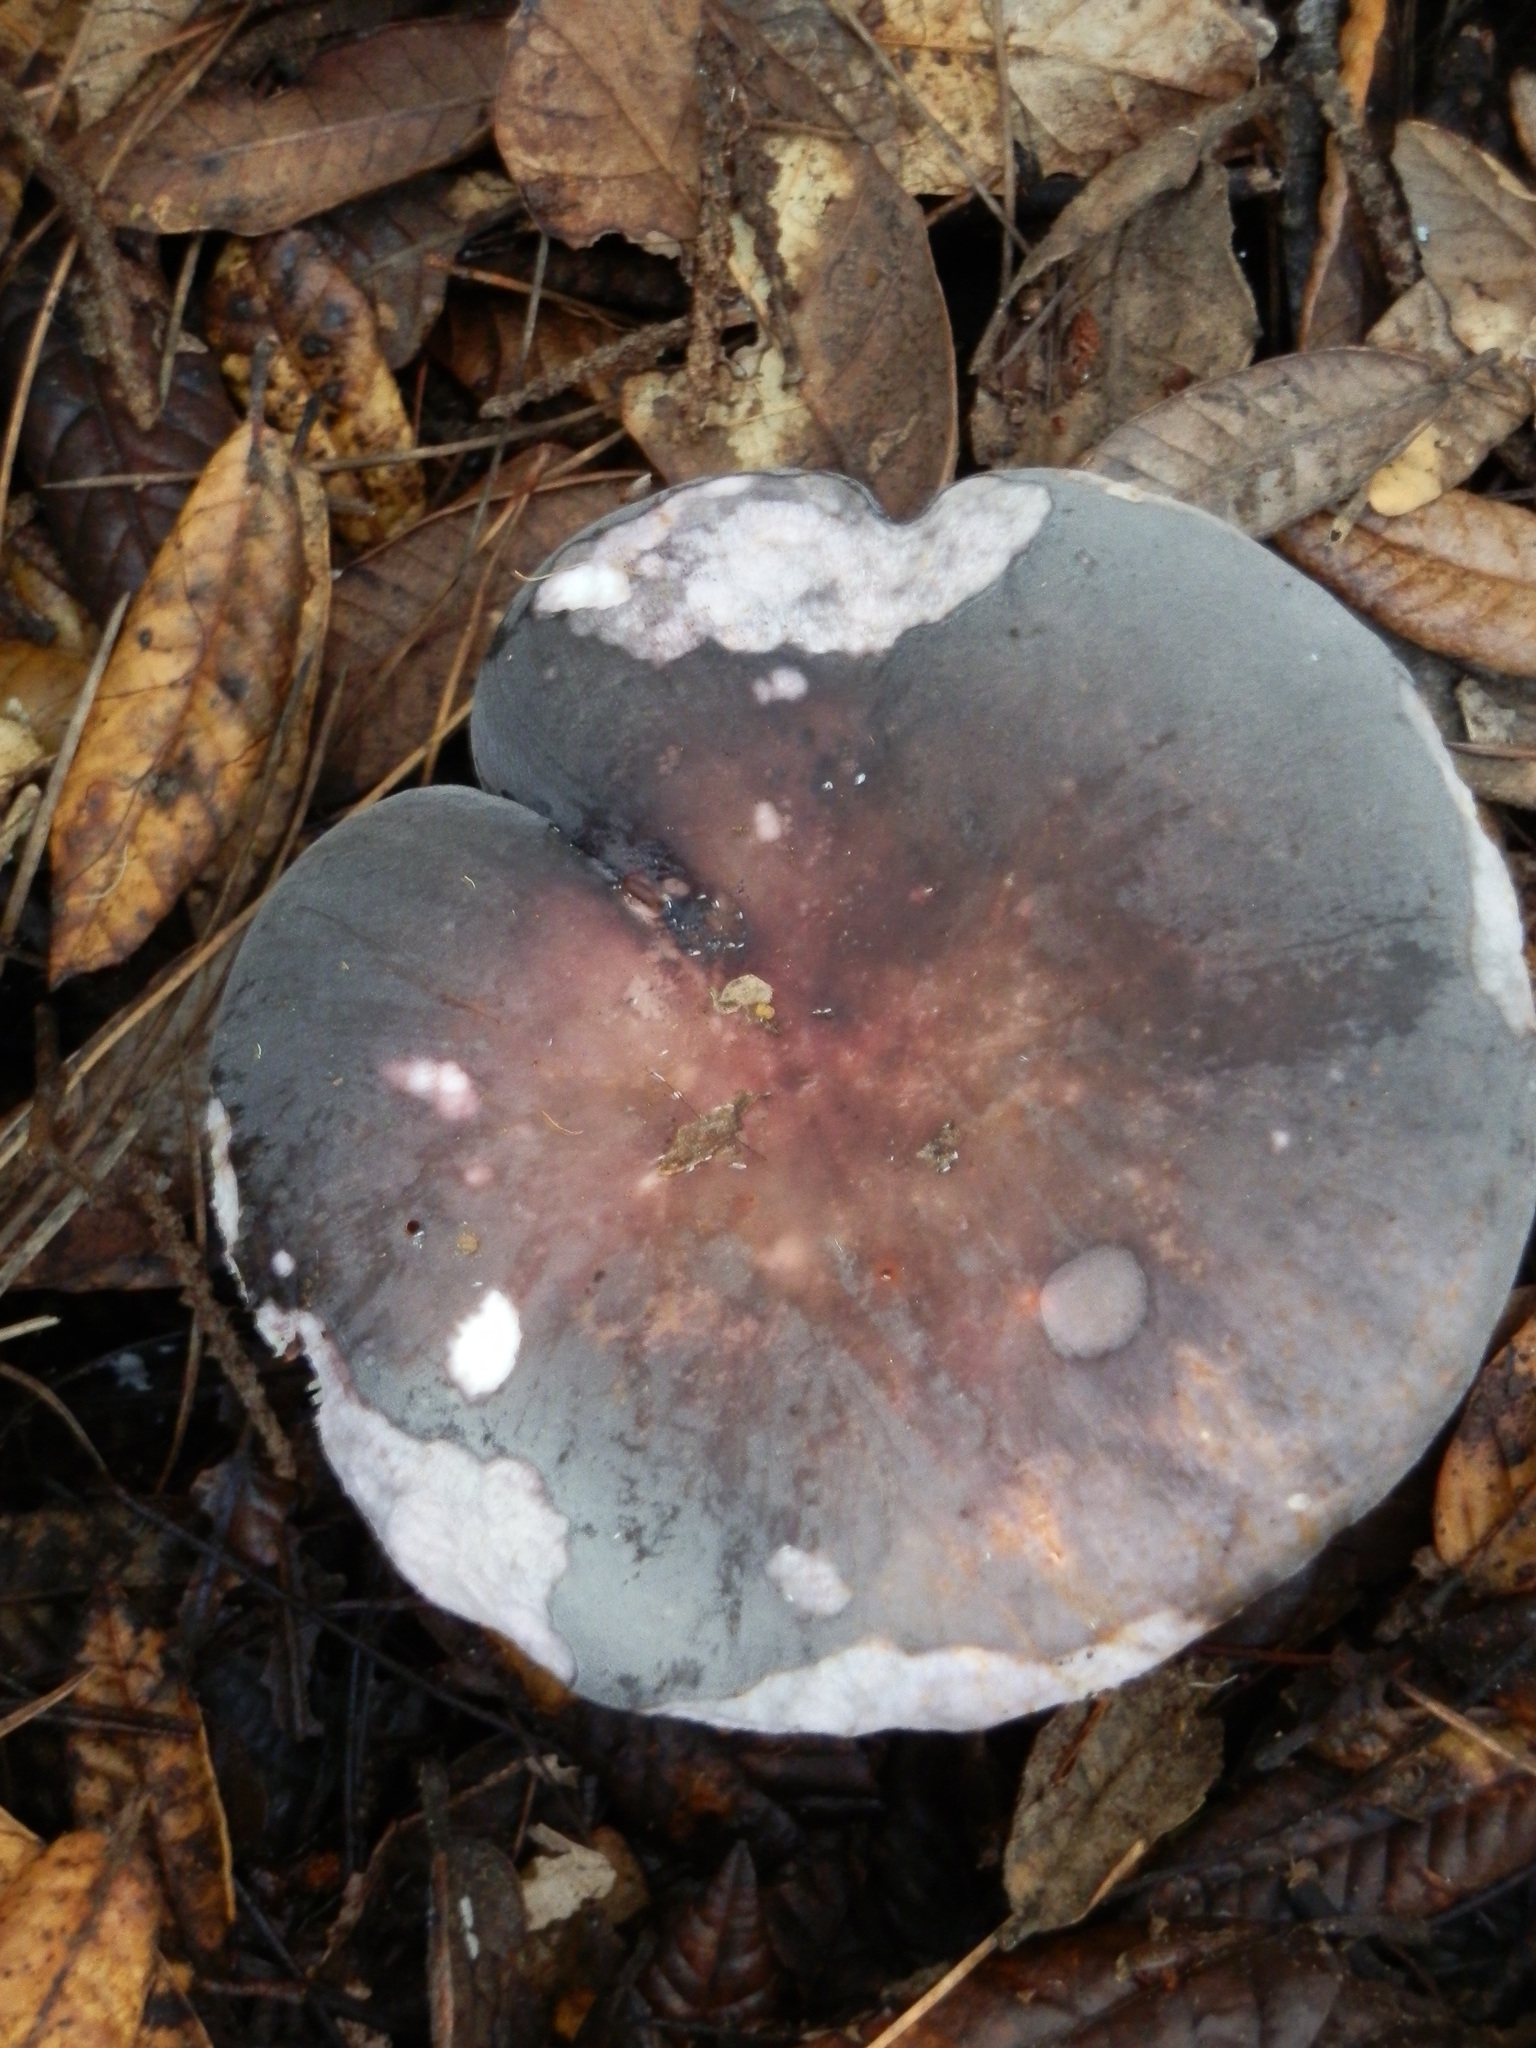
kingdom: Fungi
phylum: Basidiomycota
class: Agaricomycetes
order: Russulales
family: Russulaceae
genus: Russula
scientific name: Russula brunneola
